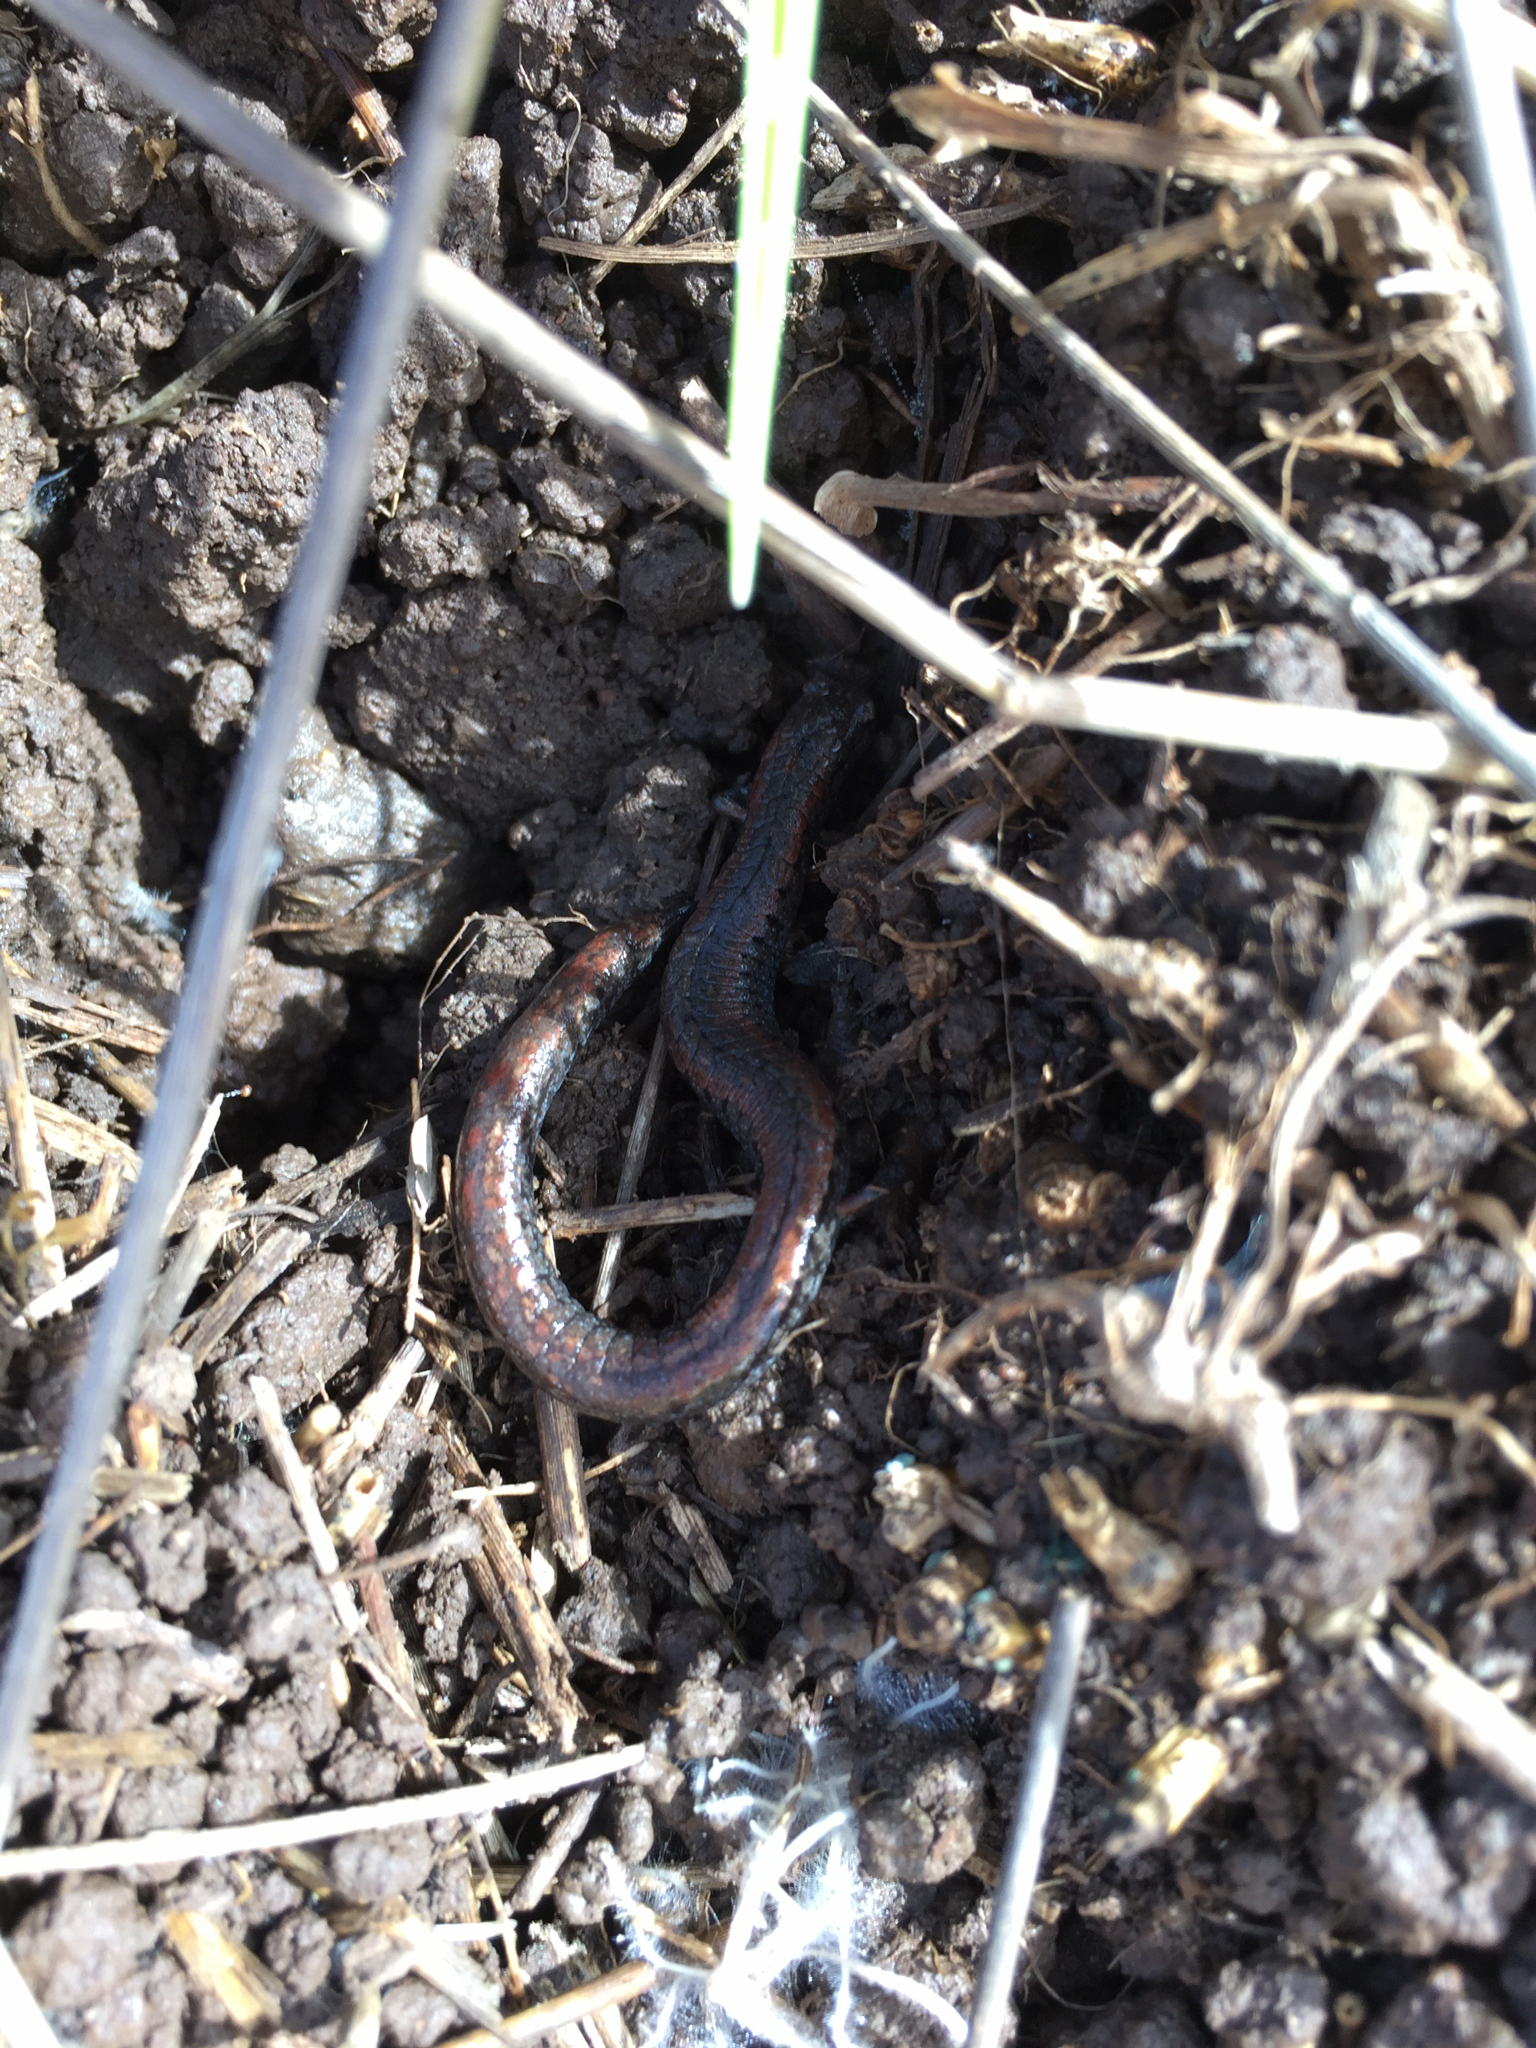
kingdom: Animalia
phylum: Chordata
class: Amphibia
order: Caudata
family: Plethodontidae
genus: Batrachoseps
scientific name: Batrachoseps attenuatus
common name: California slender salamander
